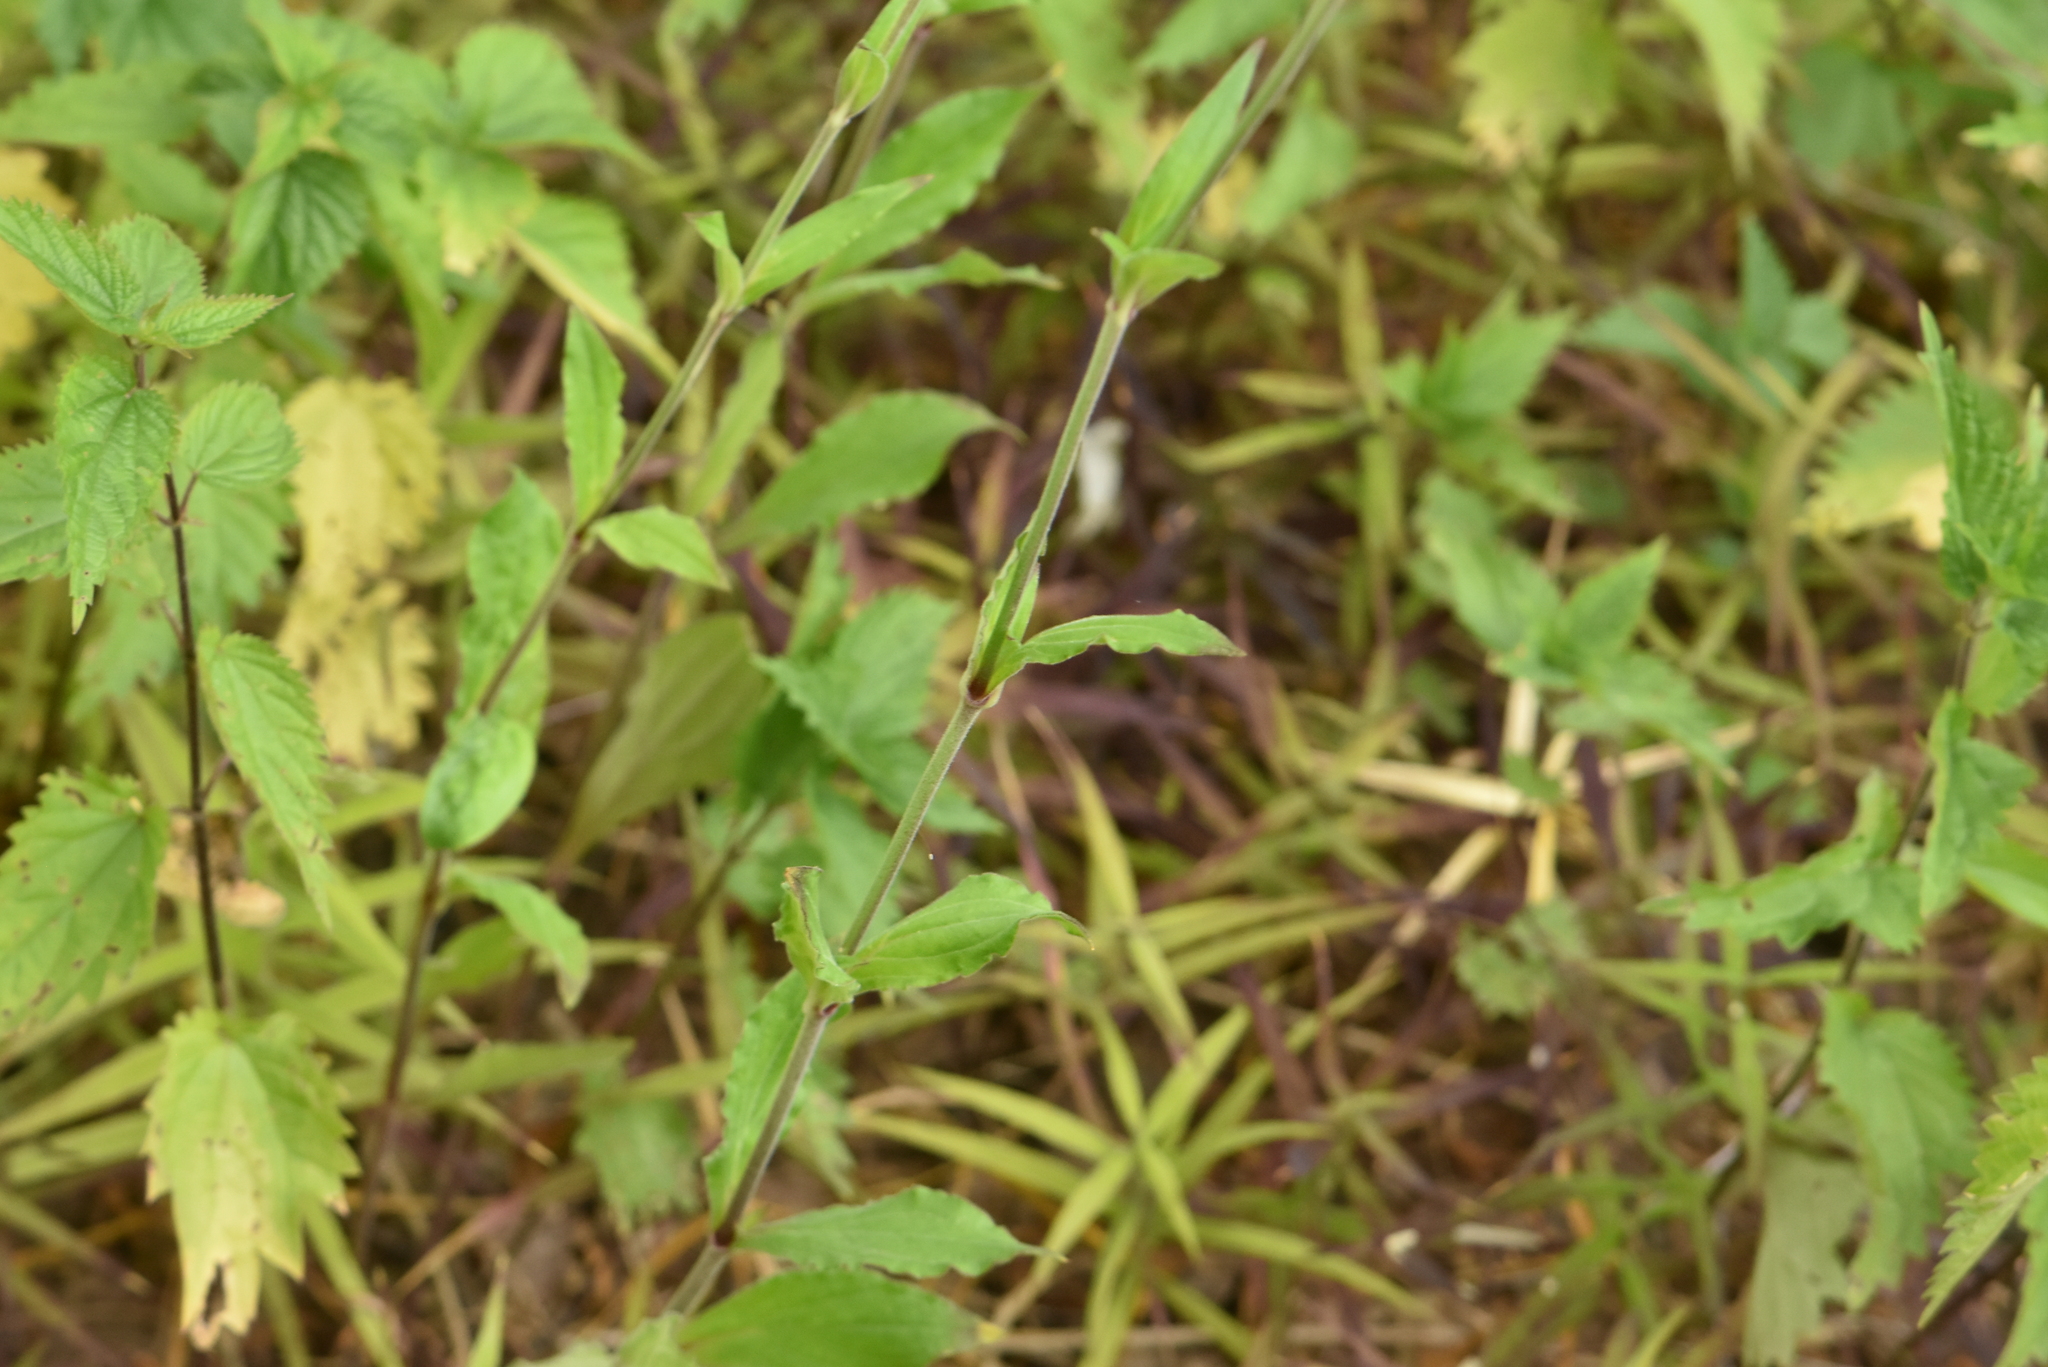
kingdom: Plantae
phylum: Tracheophyta
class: Magnoliopsida
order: Caryophyllales
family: Caryophyllaceae
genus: Silene
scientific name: Silene latifolia
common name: White campion
